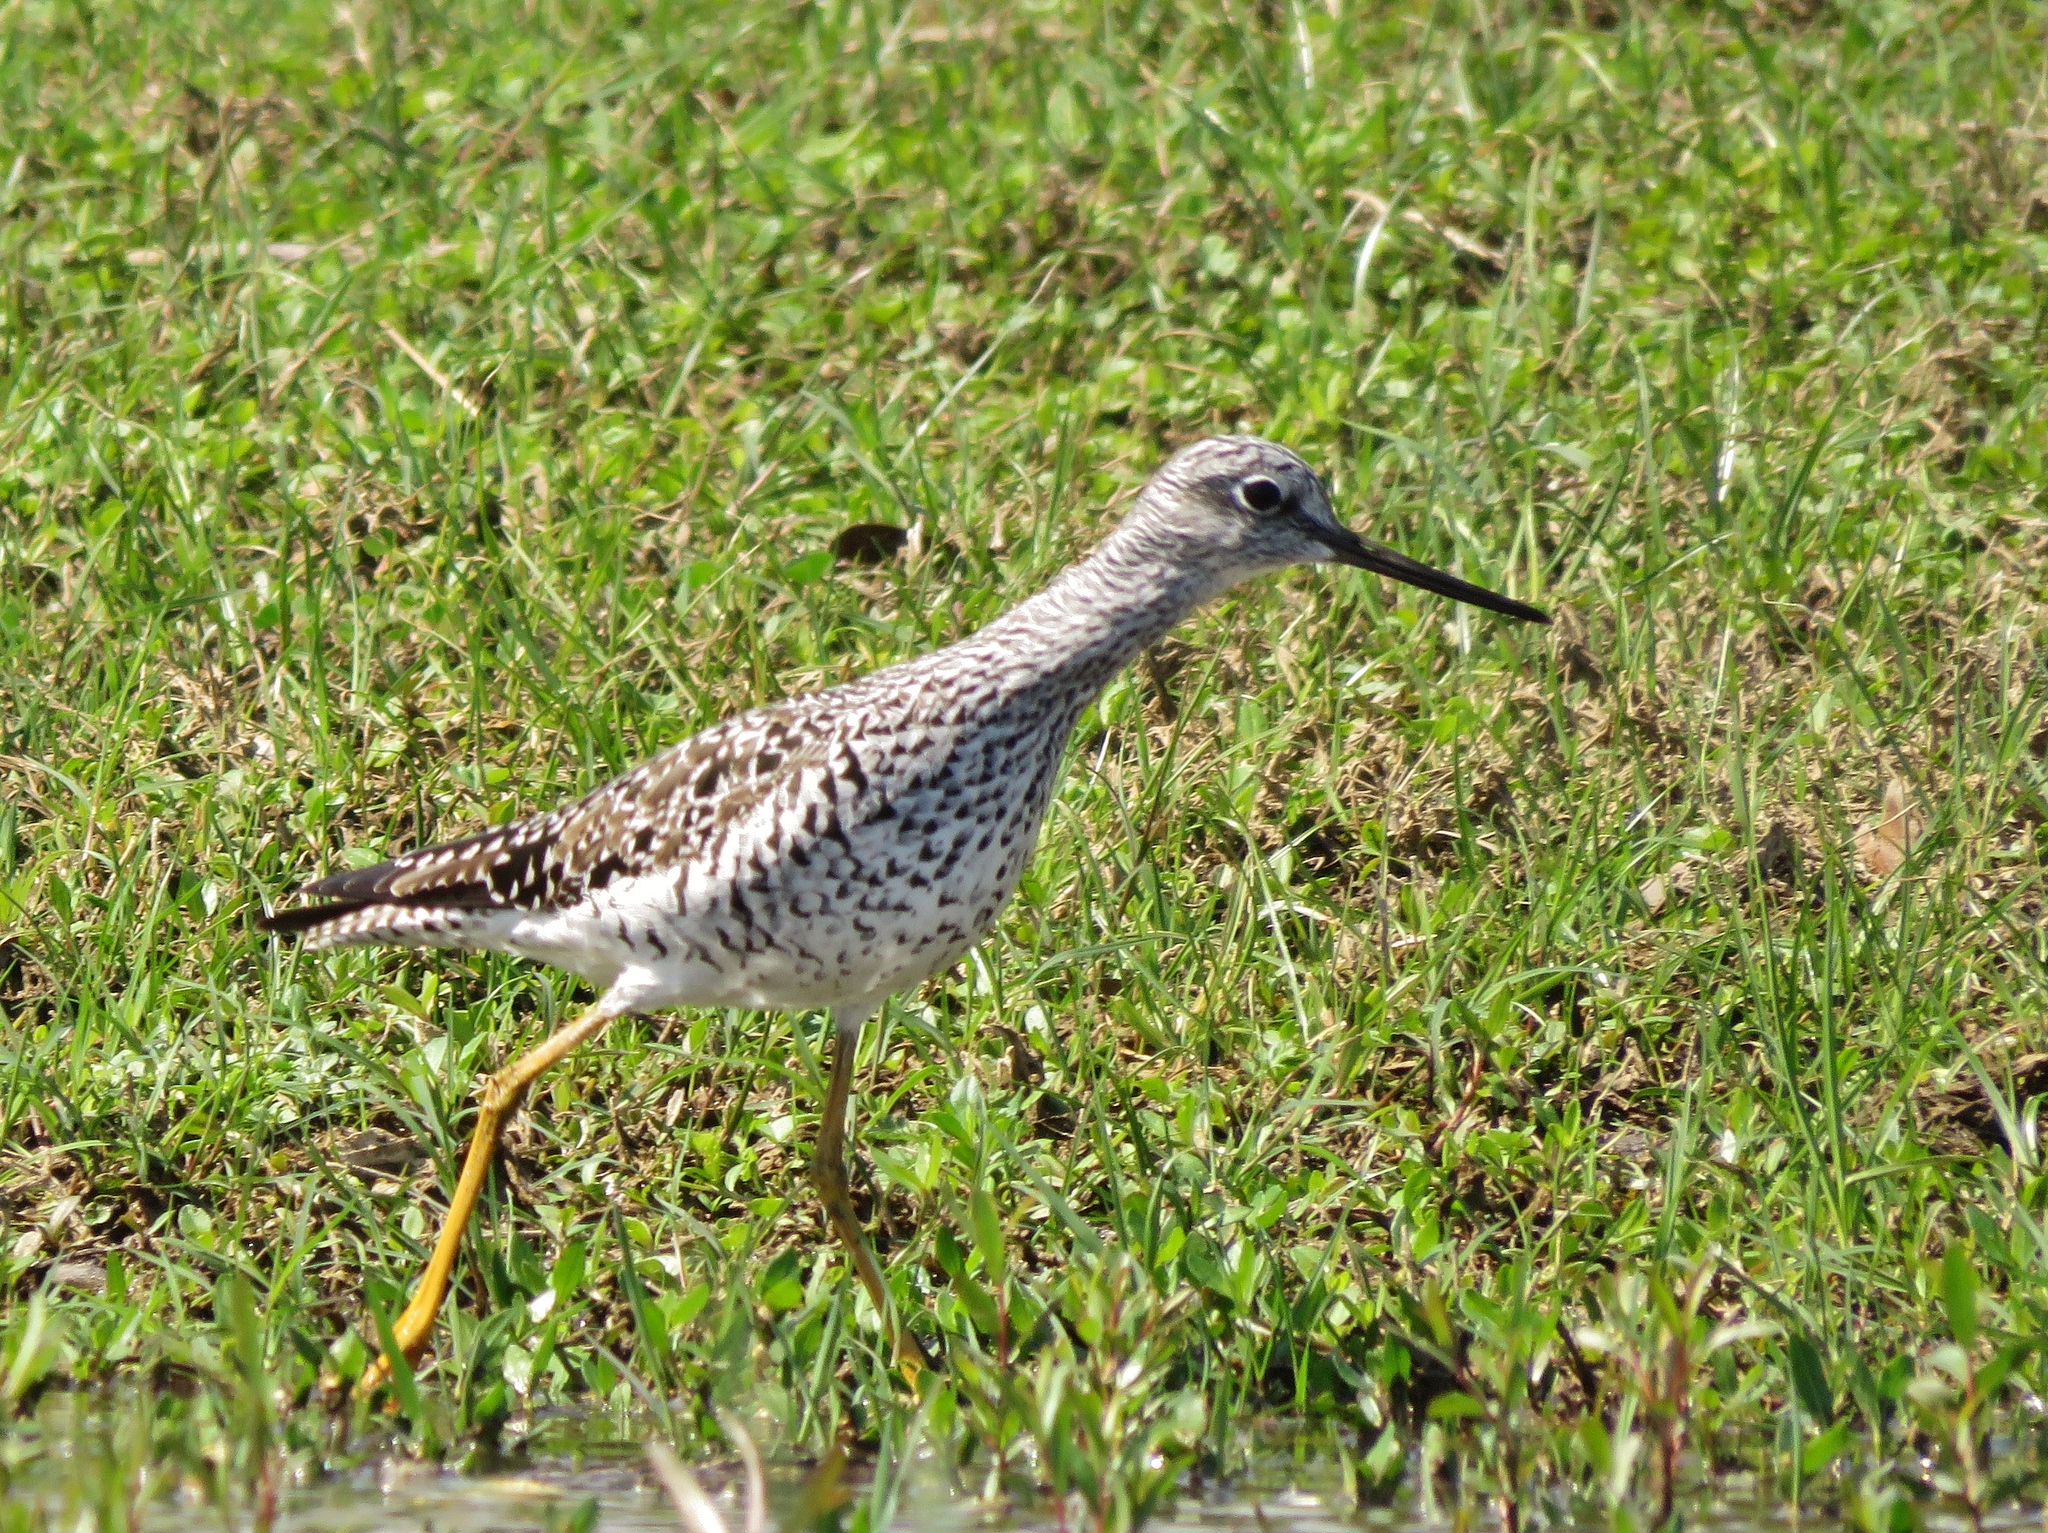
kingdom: Animalia
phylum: Chordata
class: Aves
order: Charadriiformes
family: Scolopacidae
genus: Tringa
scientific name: Tringa melanoleuca
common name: Greater yellowlegs
